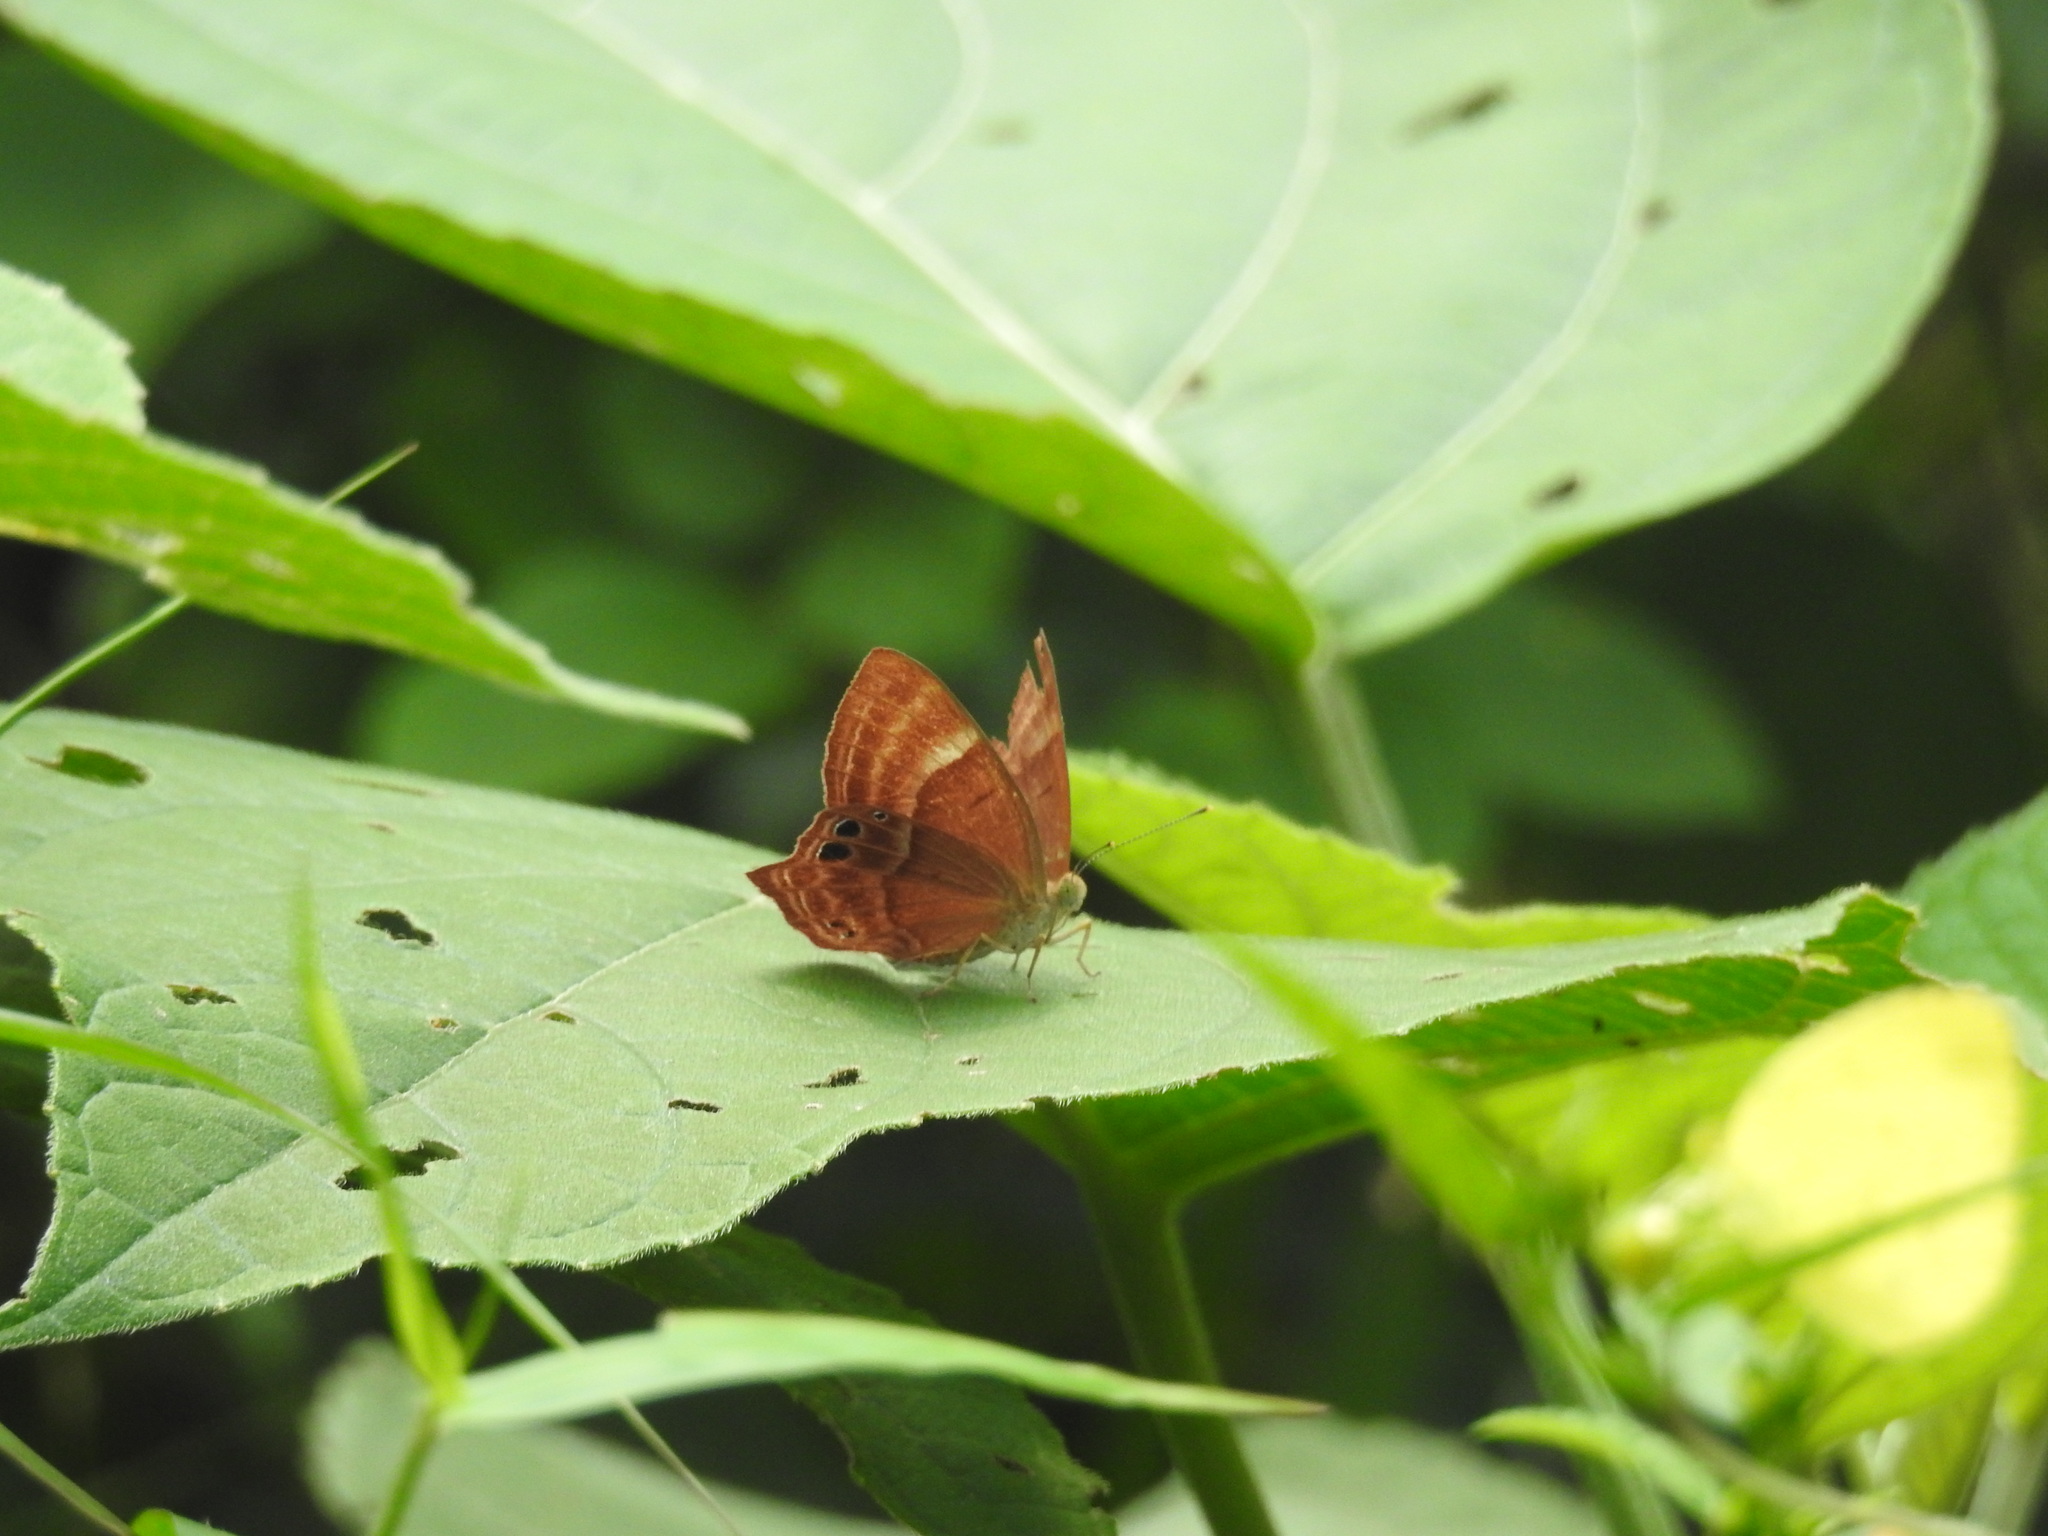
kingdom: Animalia
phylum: Arthropoda
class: Insecta
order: Lepidoptera
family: Lycaenidae
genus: Abisara
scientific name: Abisara echeria
